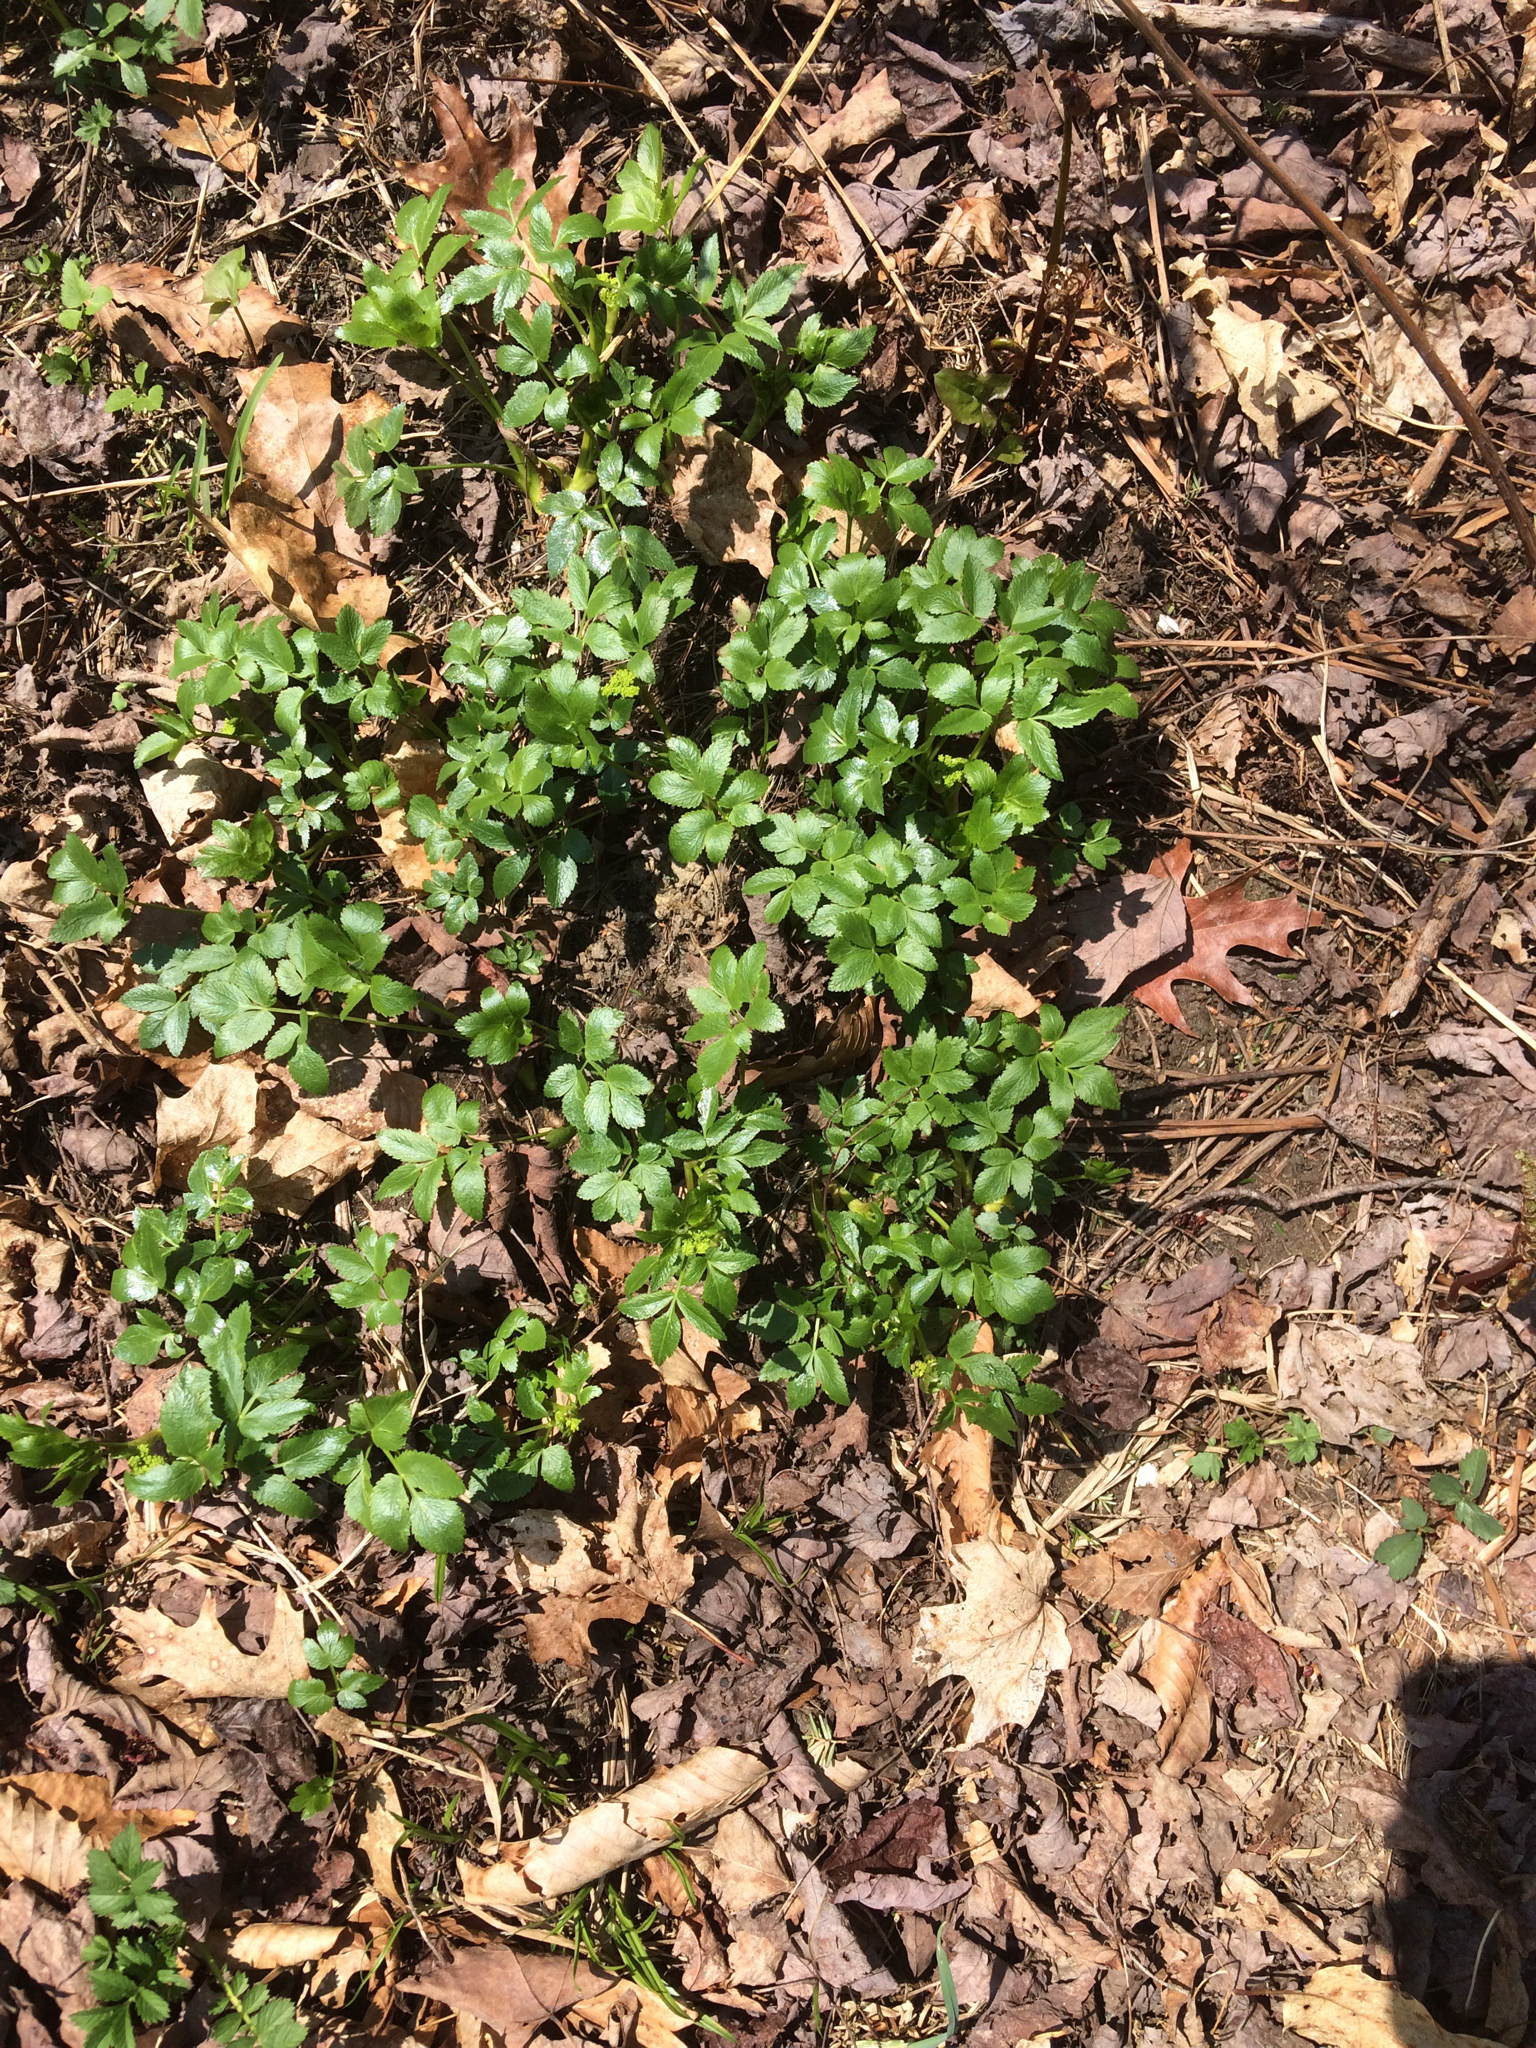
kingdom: Plantae
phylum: Tracheophyta
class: Magnoliopsida
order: Apiales
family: Apiaceae
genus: Aegopodium
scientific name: Aegopodium podagraria
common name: Ground-elder
